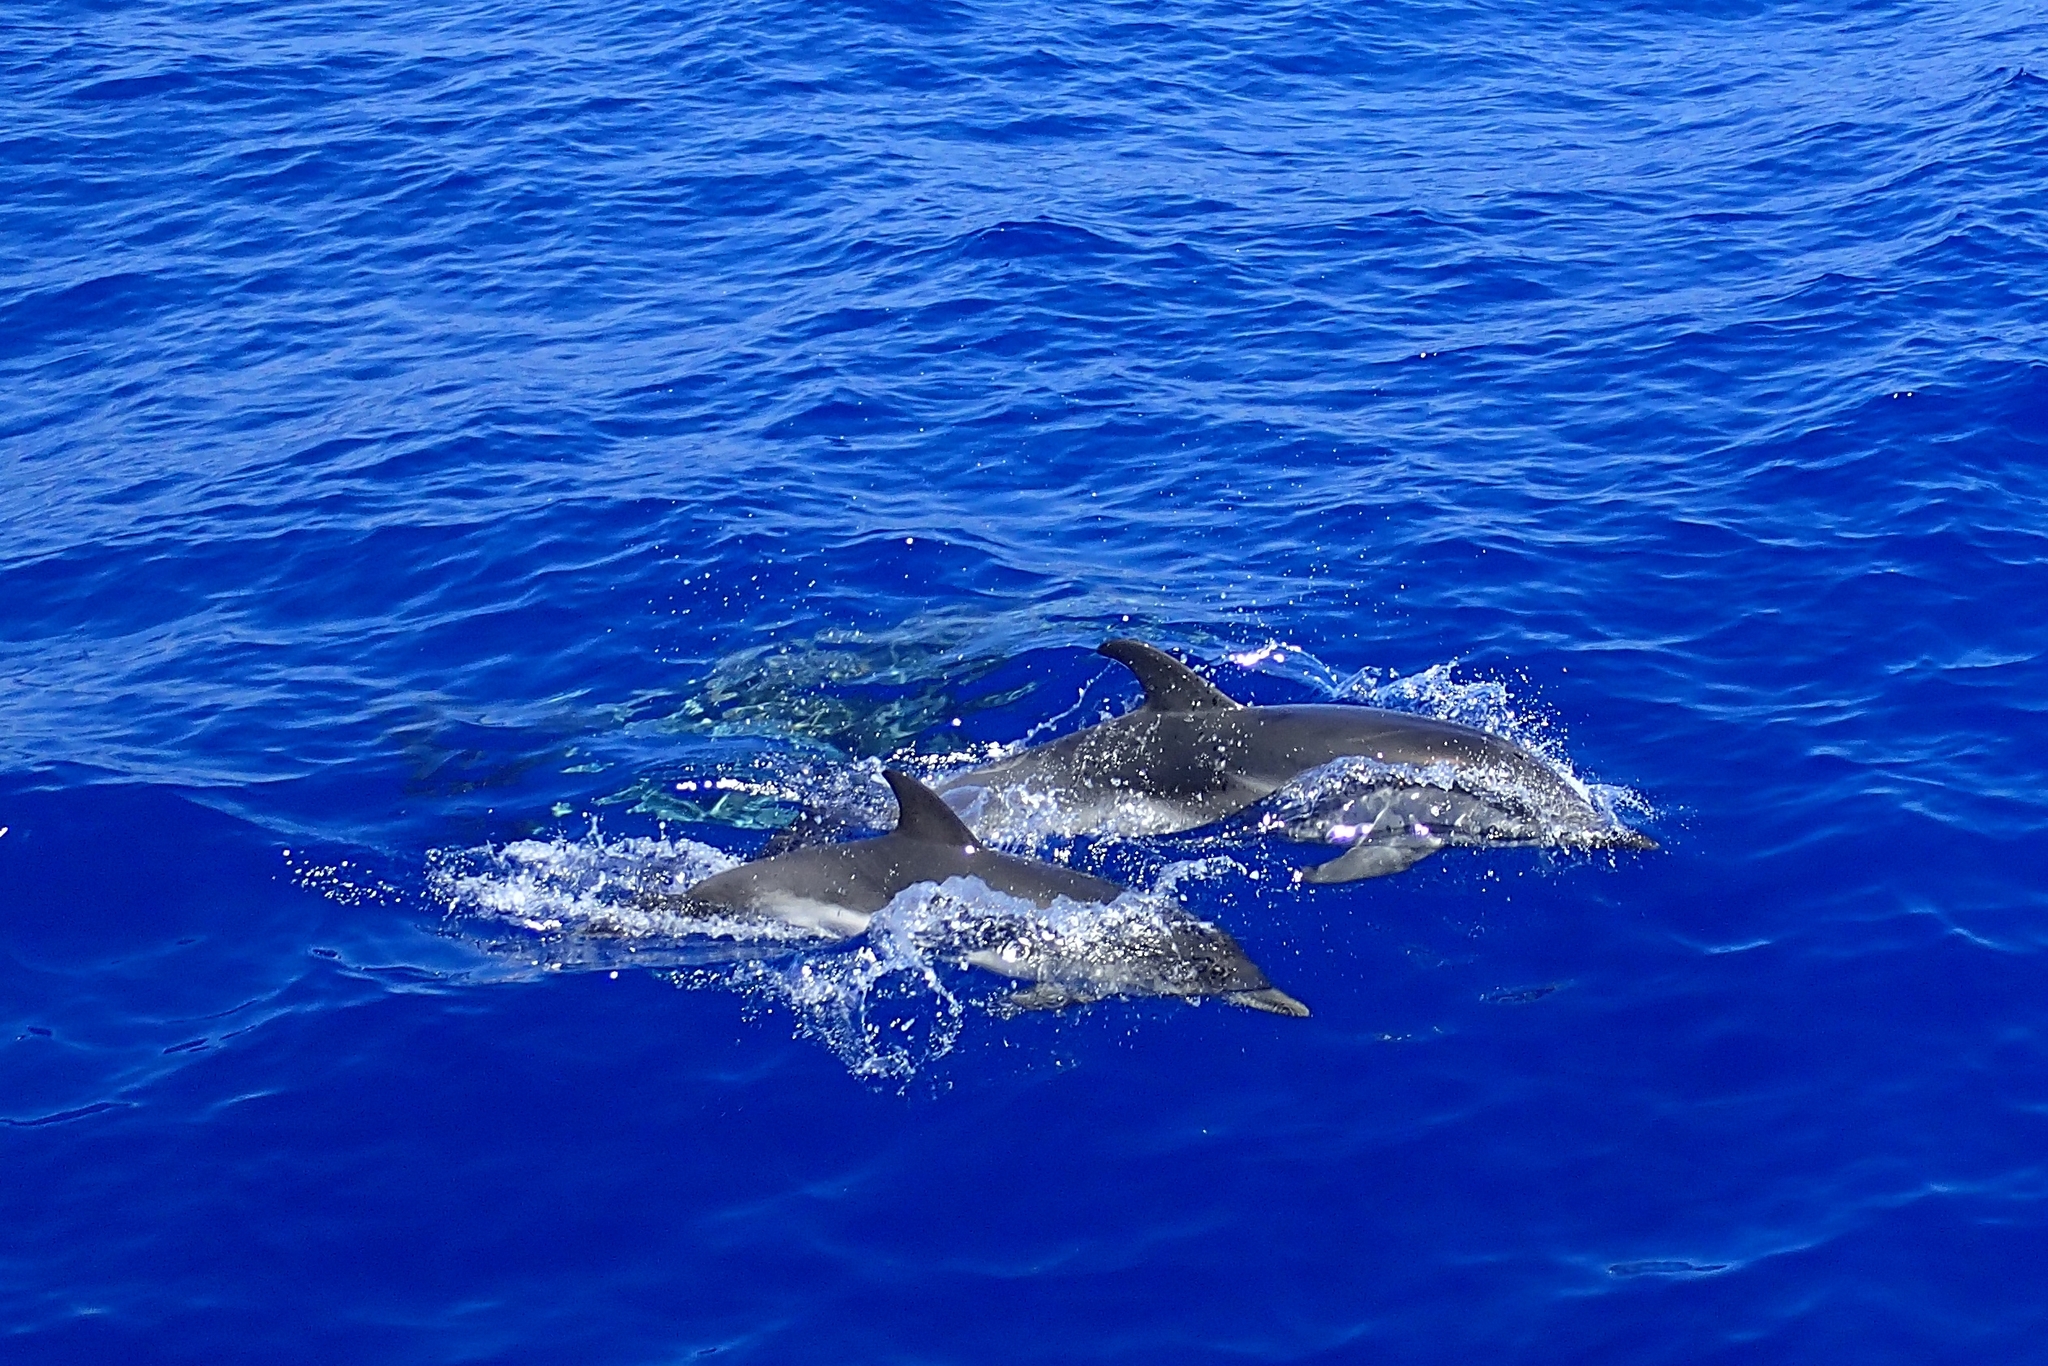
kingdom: Animalia
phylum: Chordata
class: Mammalia
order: Cetacea
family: Delphinidae
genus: Stenella
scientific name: Stenella coeruleoalba
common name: Striped dolphin
